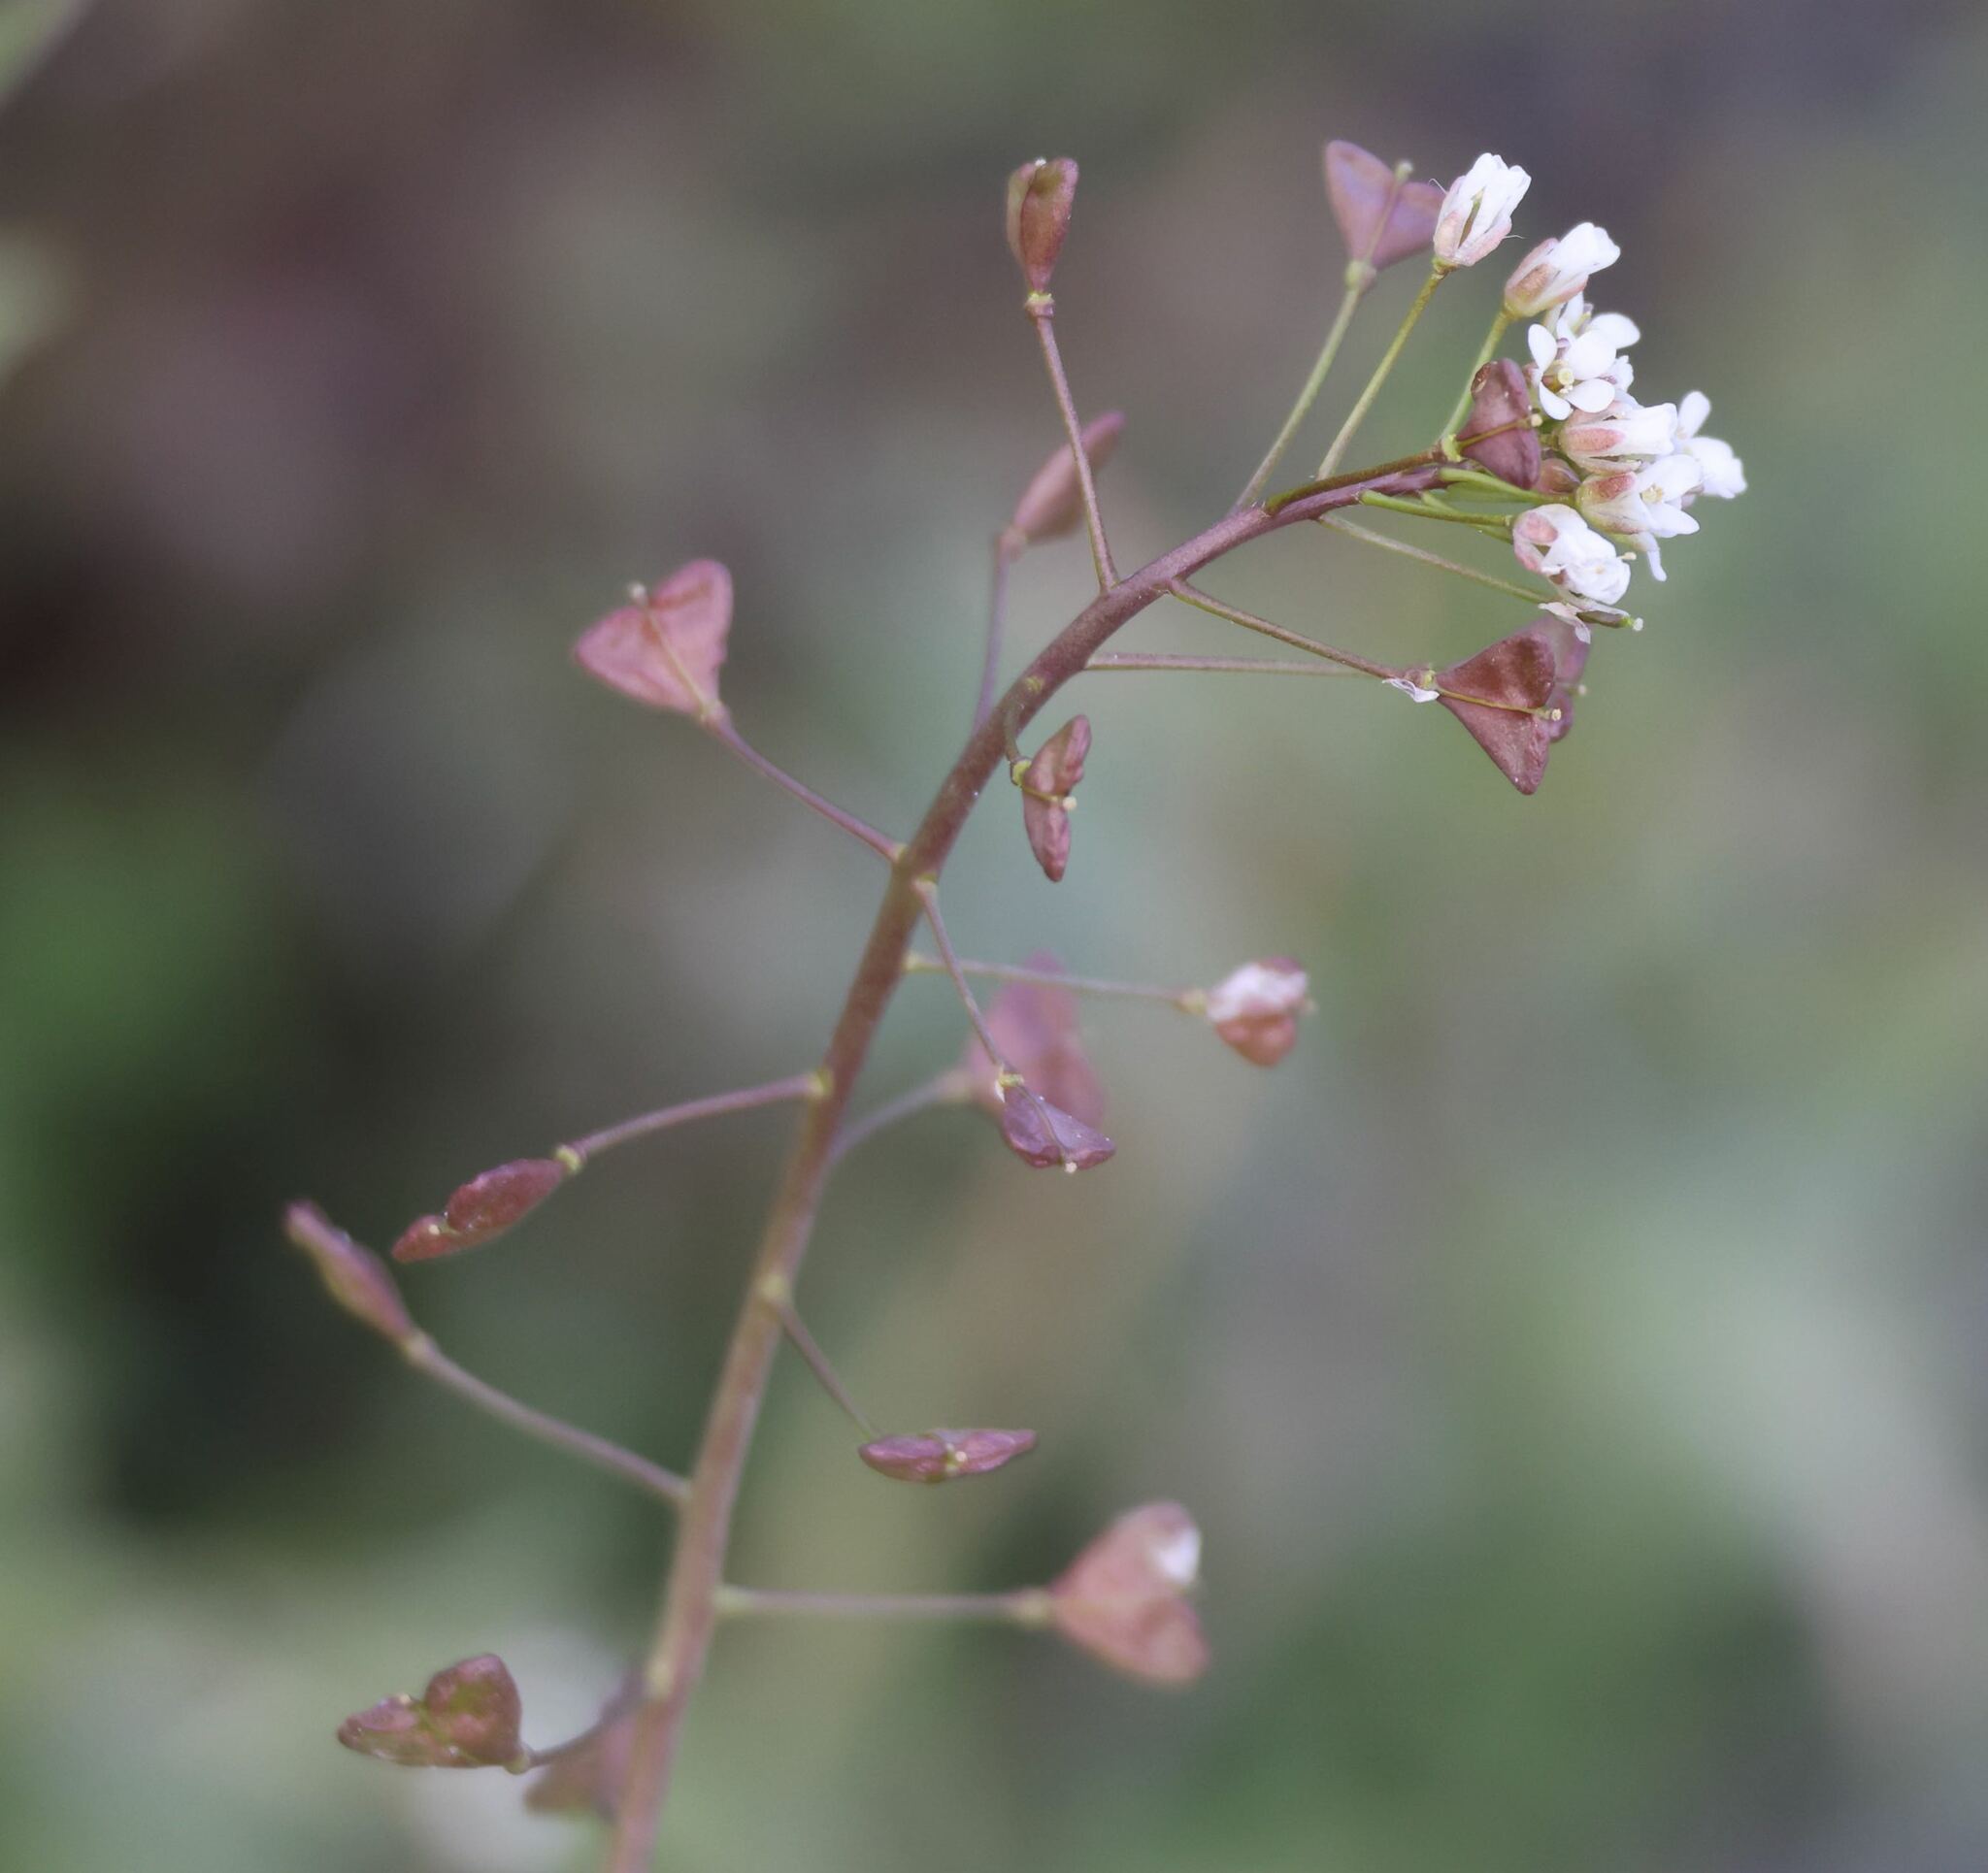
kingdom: Plantae
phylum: Tracheophyta
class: Magnoliopsida
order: Brassicales
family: Brassicaceae
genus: Capsella
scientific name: Capsella bursa-pastoris
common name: Shepherd's purse
